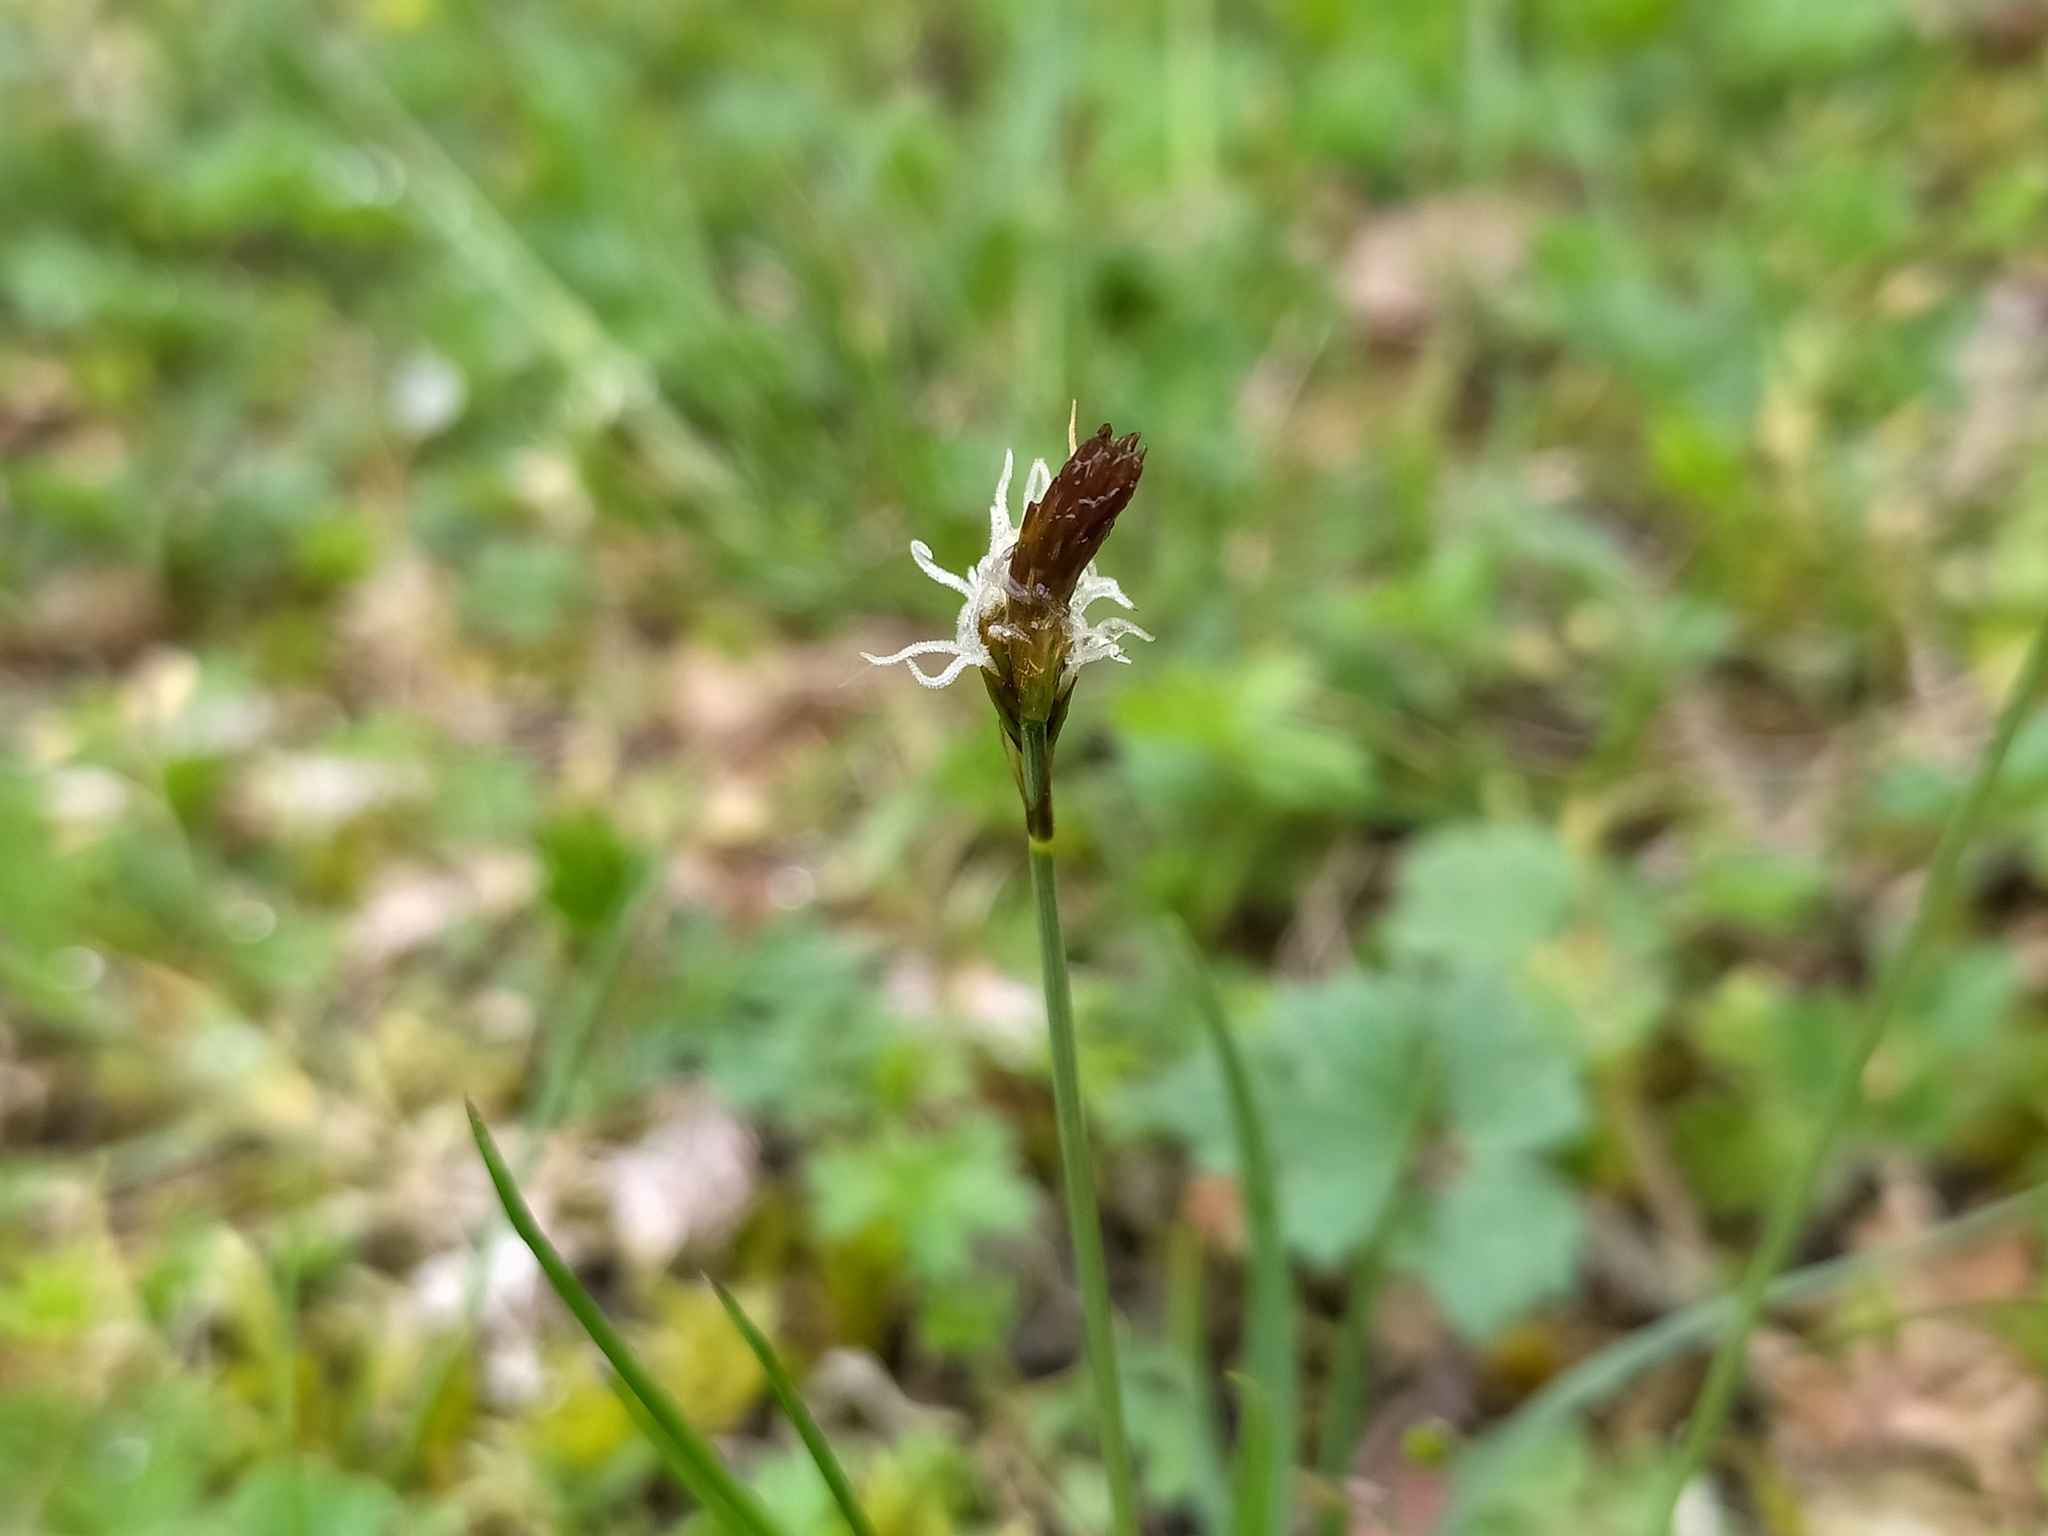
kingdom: Plantae
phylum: Tracheophyta
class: Liliopsida
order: Poales
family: Cyperaceae
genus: Carex
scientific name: Carex caryophyllea
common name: Spring sedge
